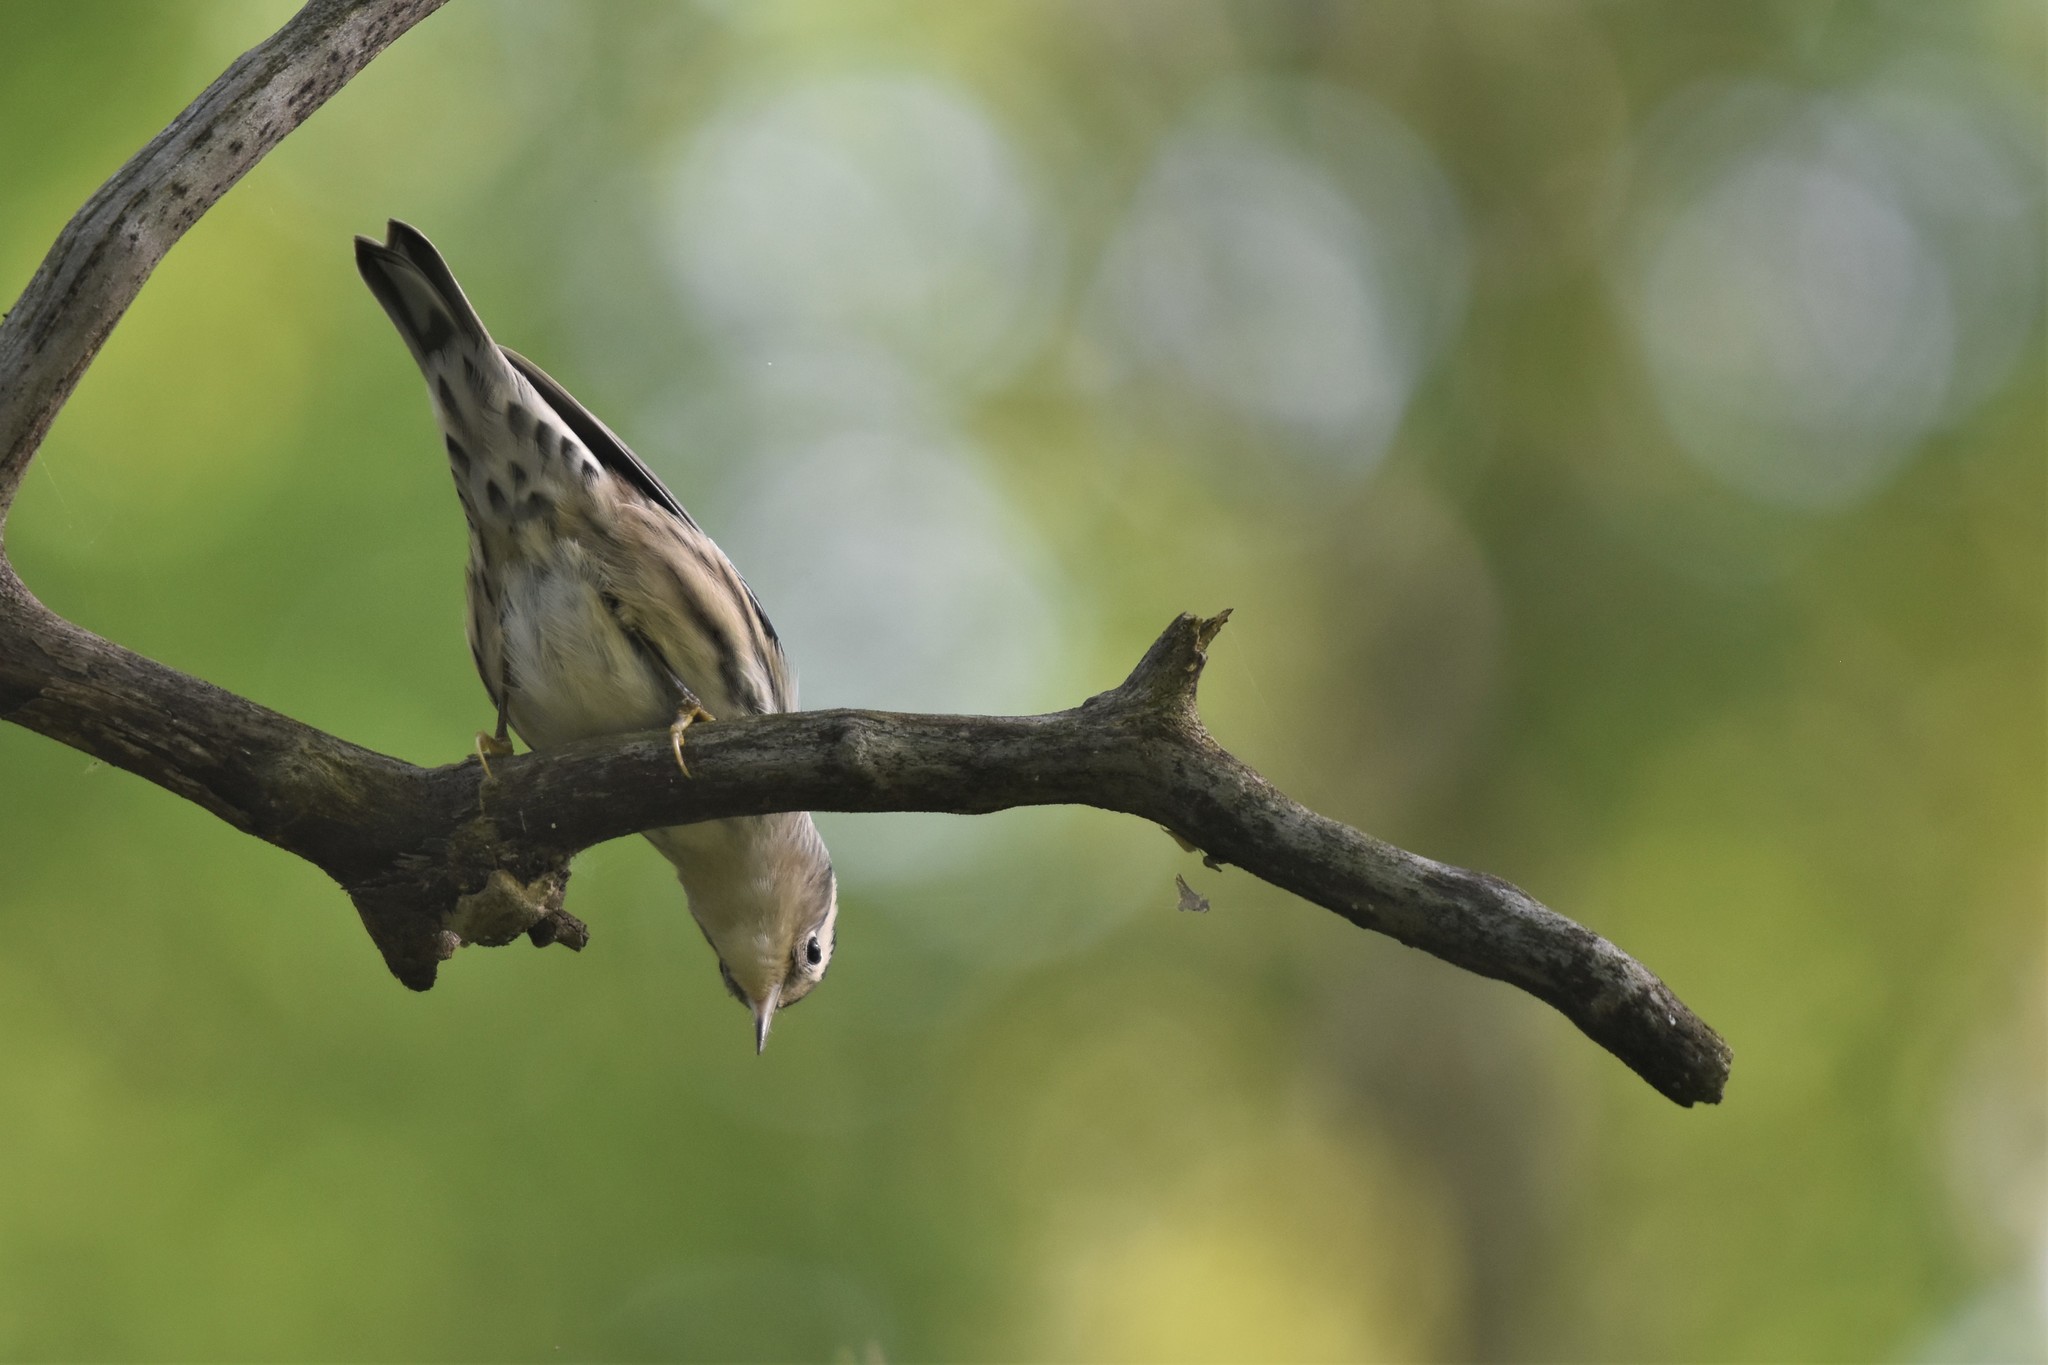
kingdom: Animalia
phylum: Chordata
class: Aves
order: Passeriformes
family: Parulidae
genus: Mniotilta
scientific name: Mniotilta varia
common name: Black-and-white warbler
